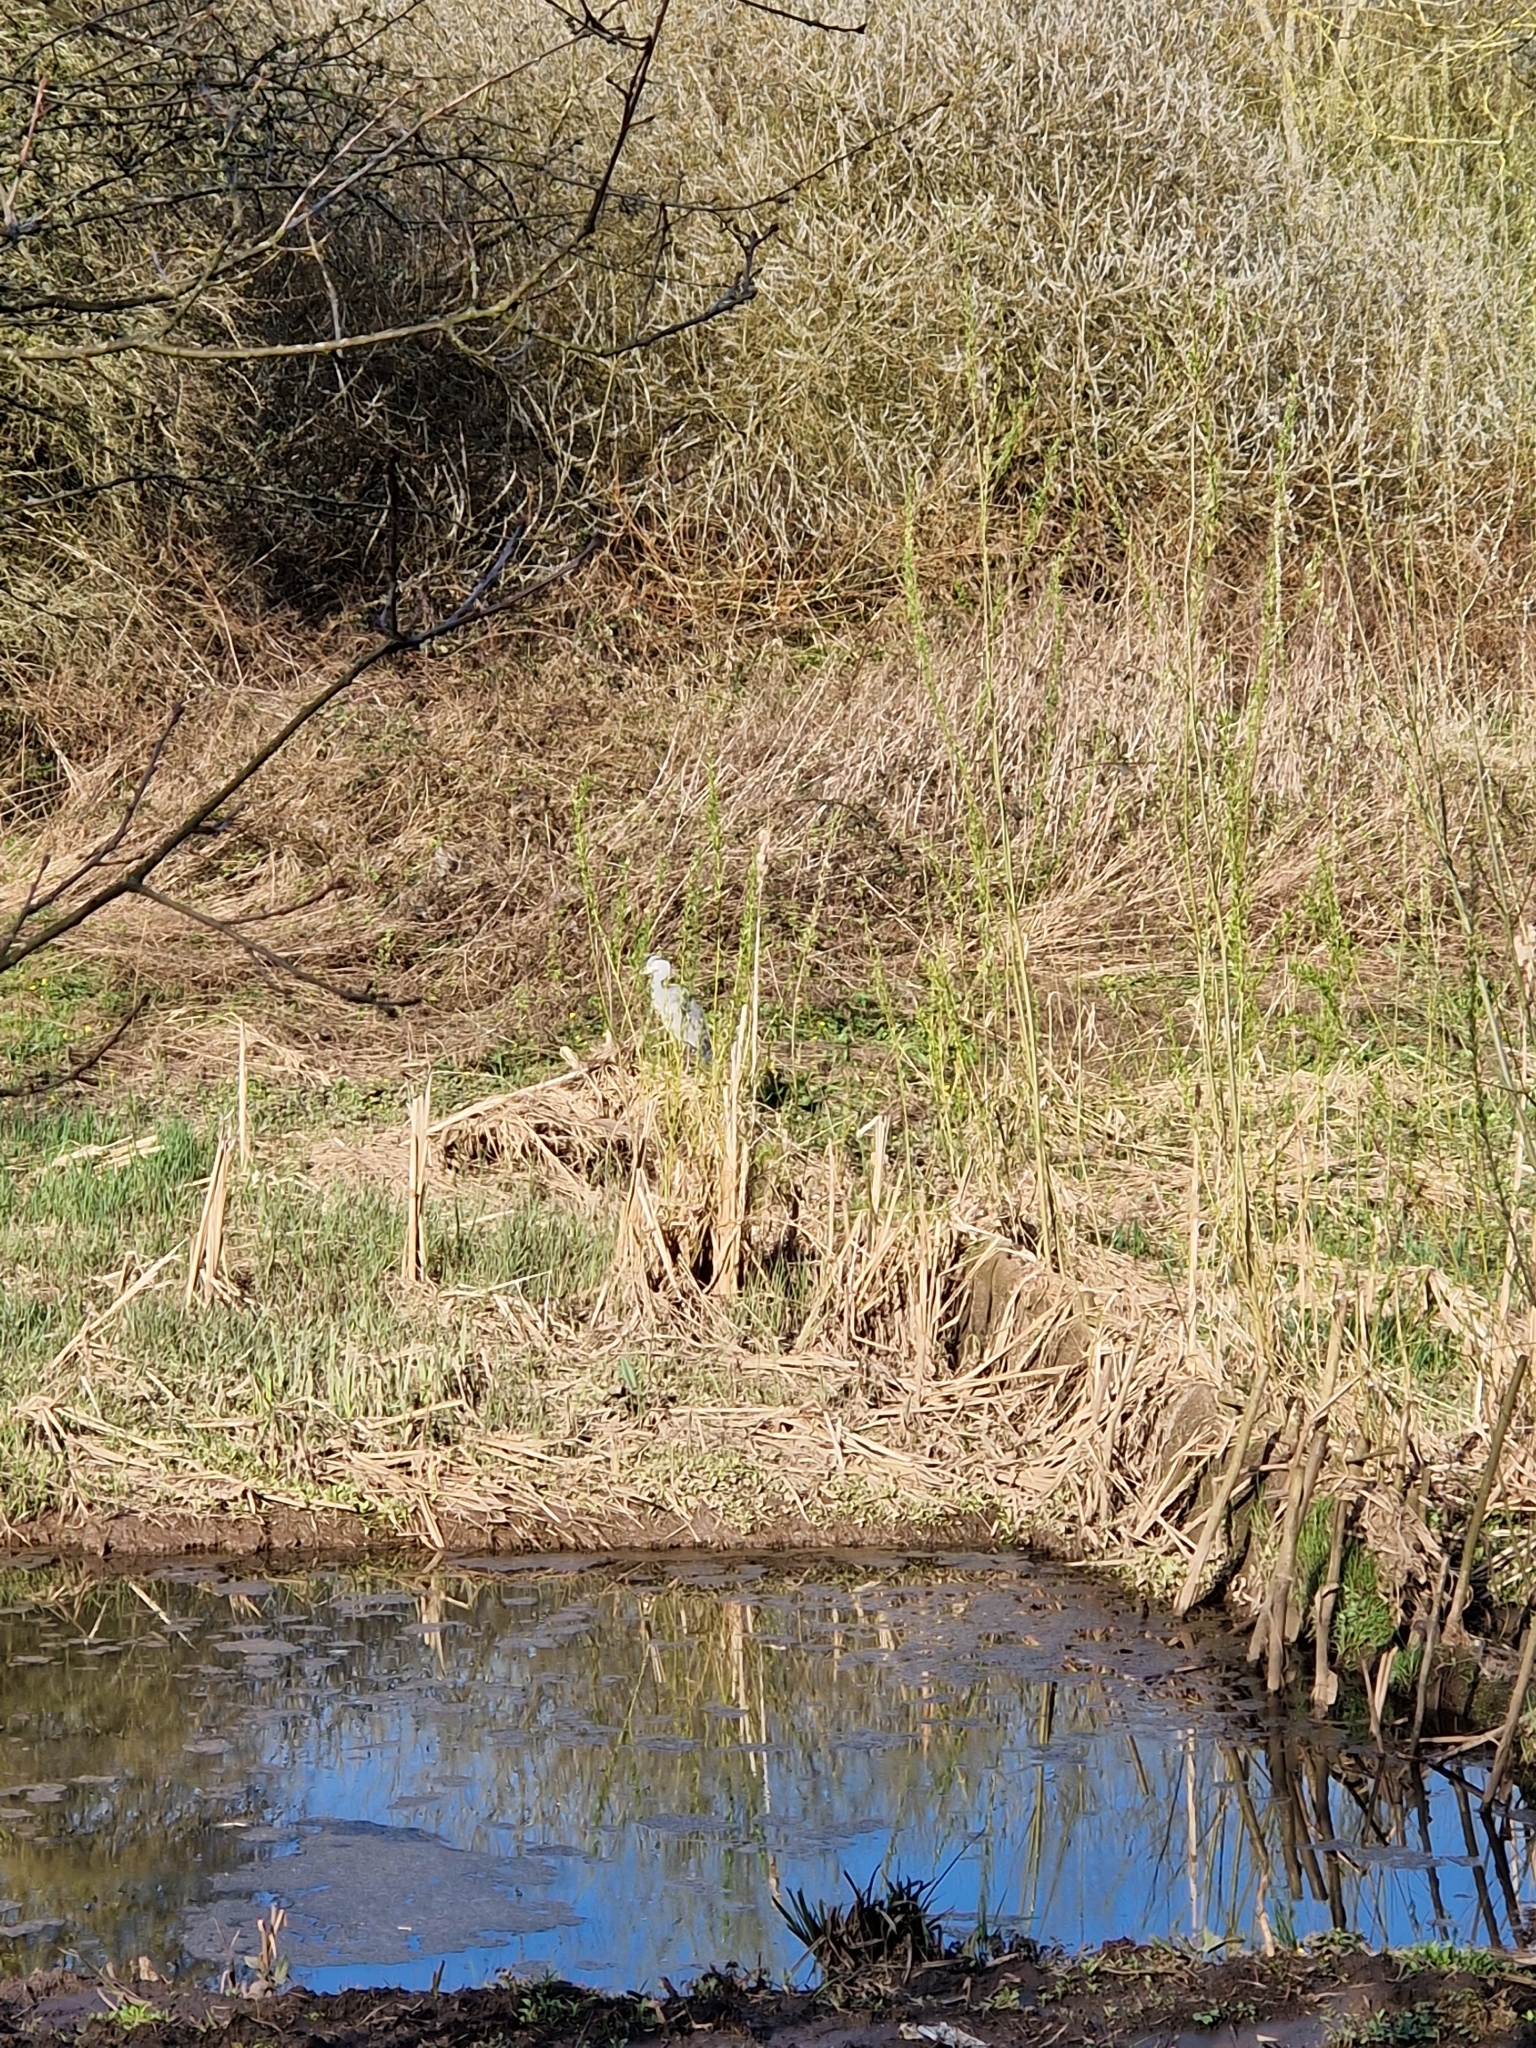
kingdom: Animalia
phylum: Chordata
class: Aves
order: Pelecaniformes
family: Ardeidae
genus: Ardea
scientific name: Ardea cinerea
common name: Grey heron
